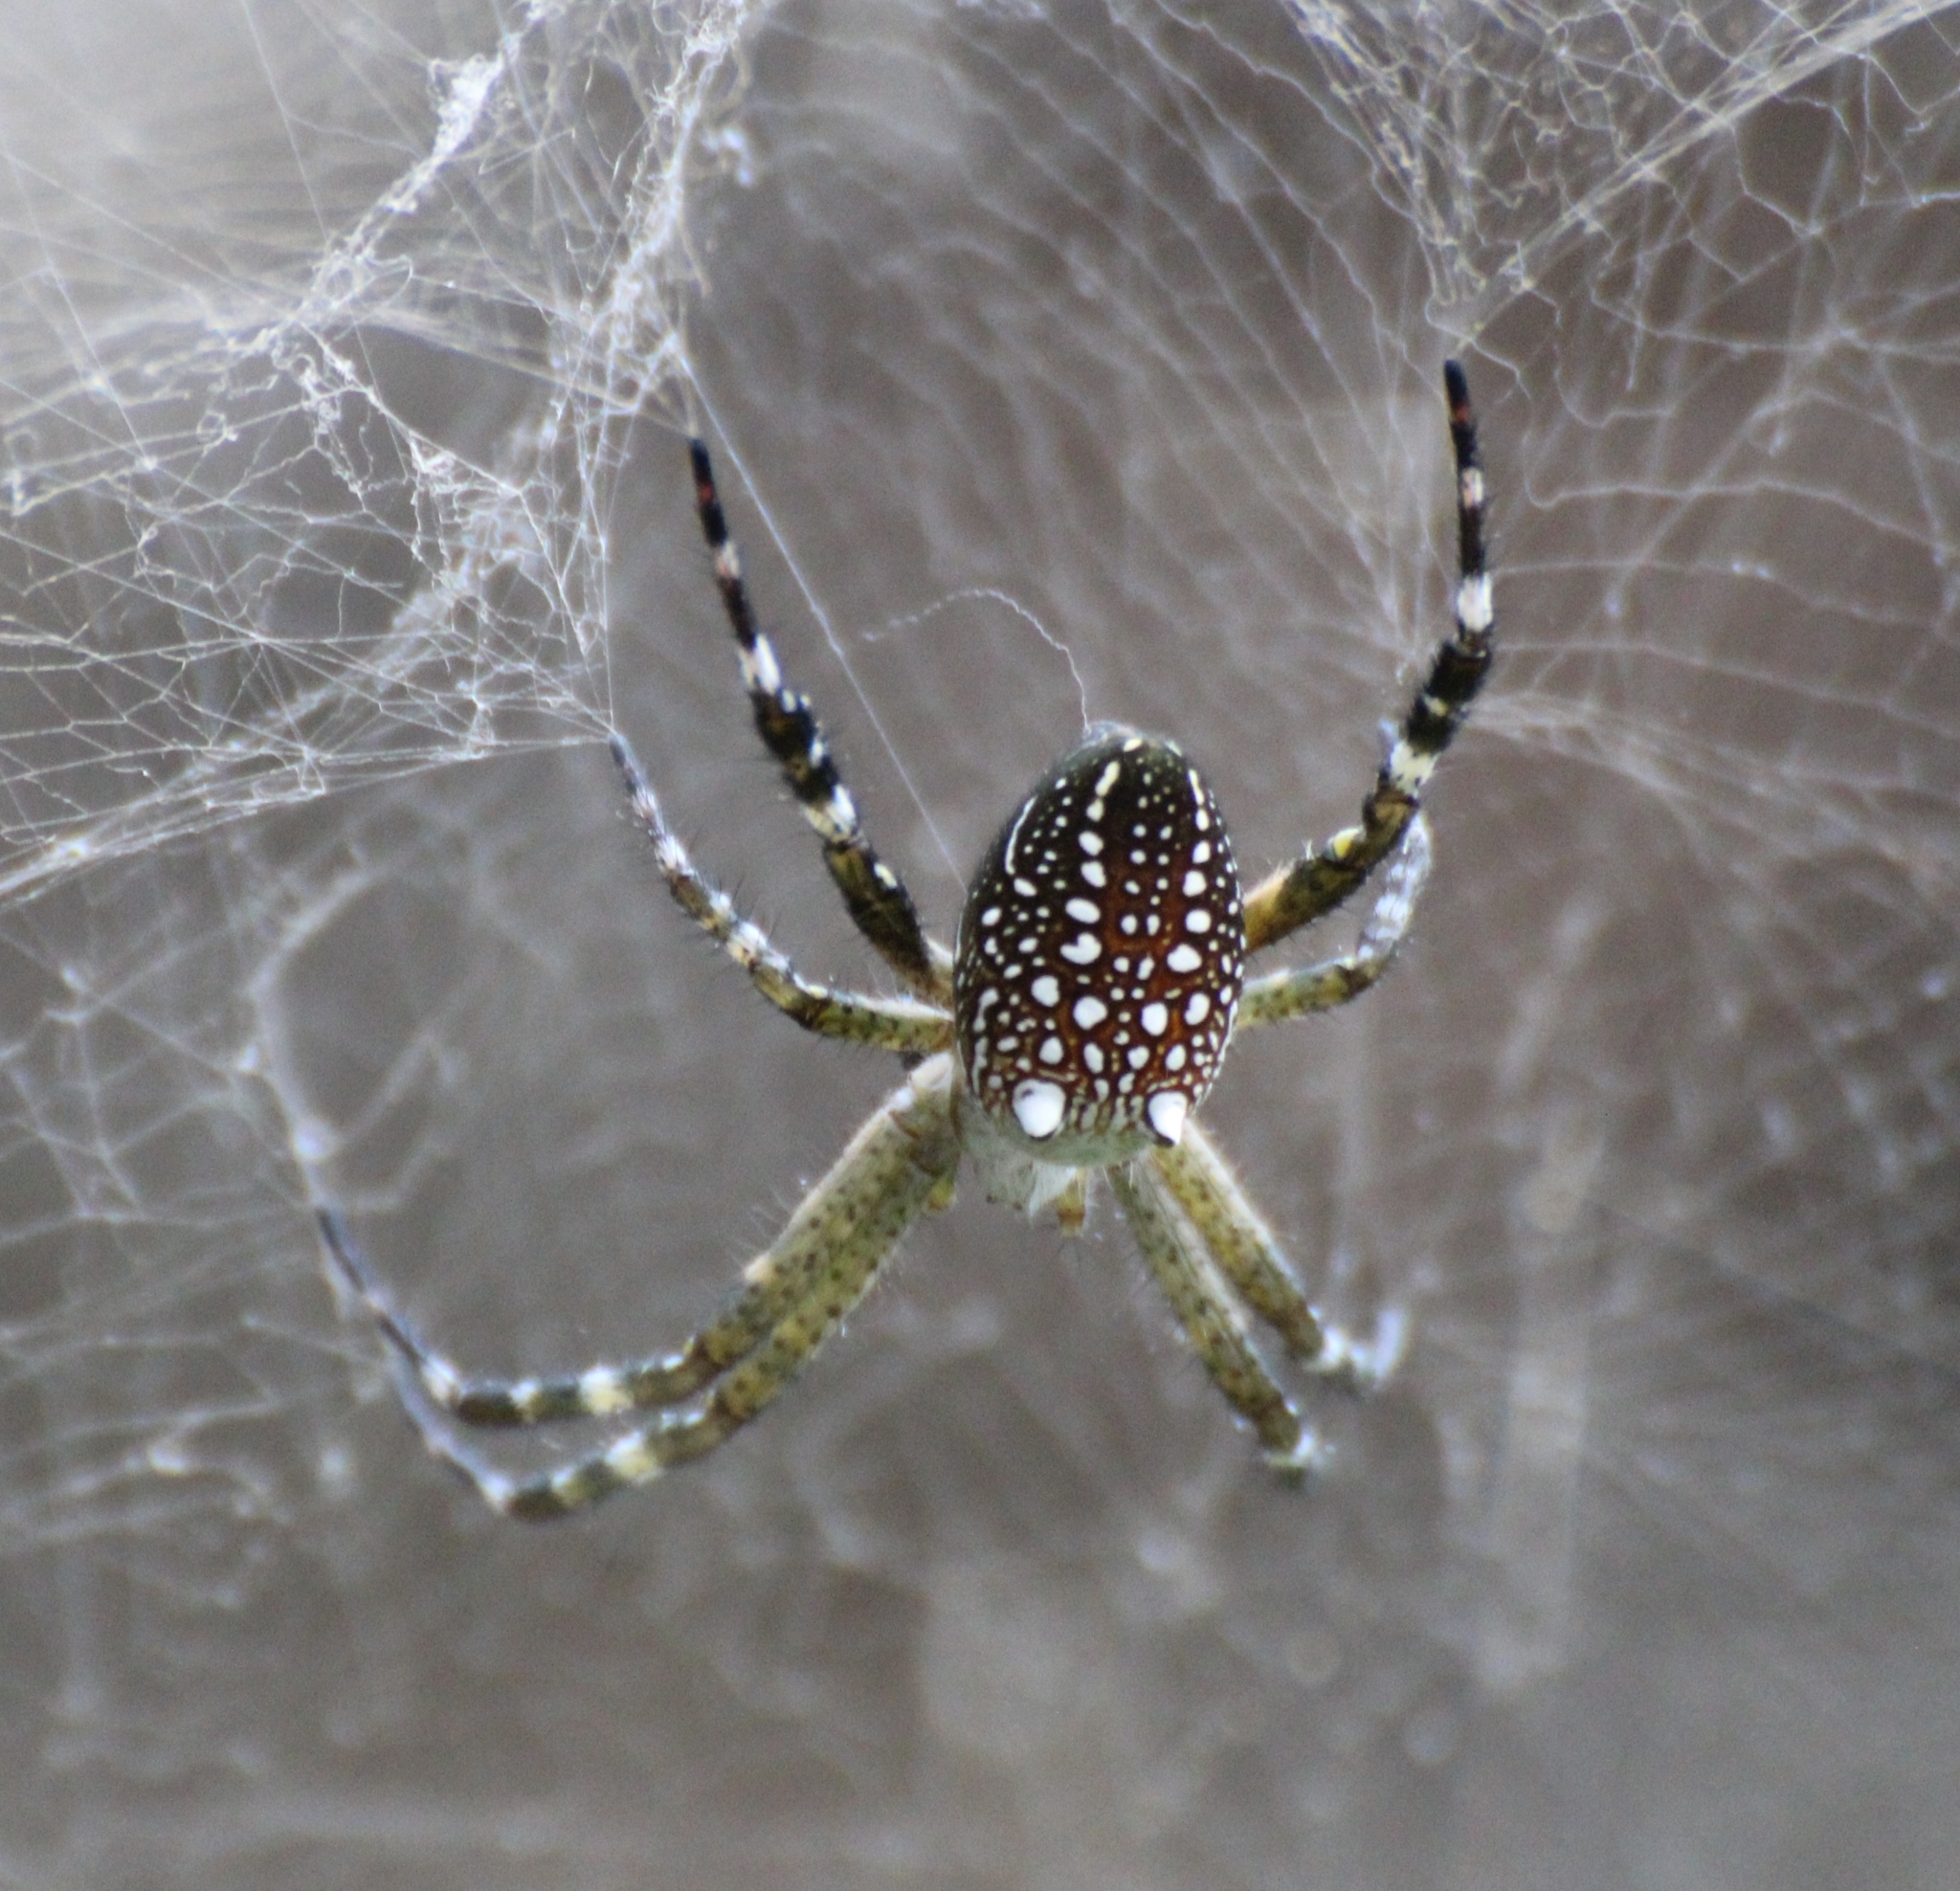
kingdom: Chromista
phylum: Ochrophyta
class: Dictyochophyceae
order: Pedinellales
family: Cyrtophoraceae
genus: Cyrtophora
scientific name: Cyrtophora moluccensis
